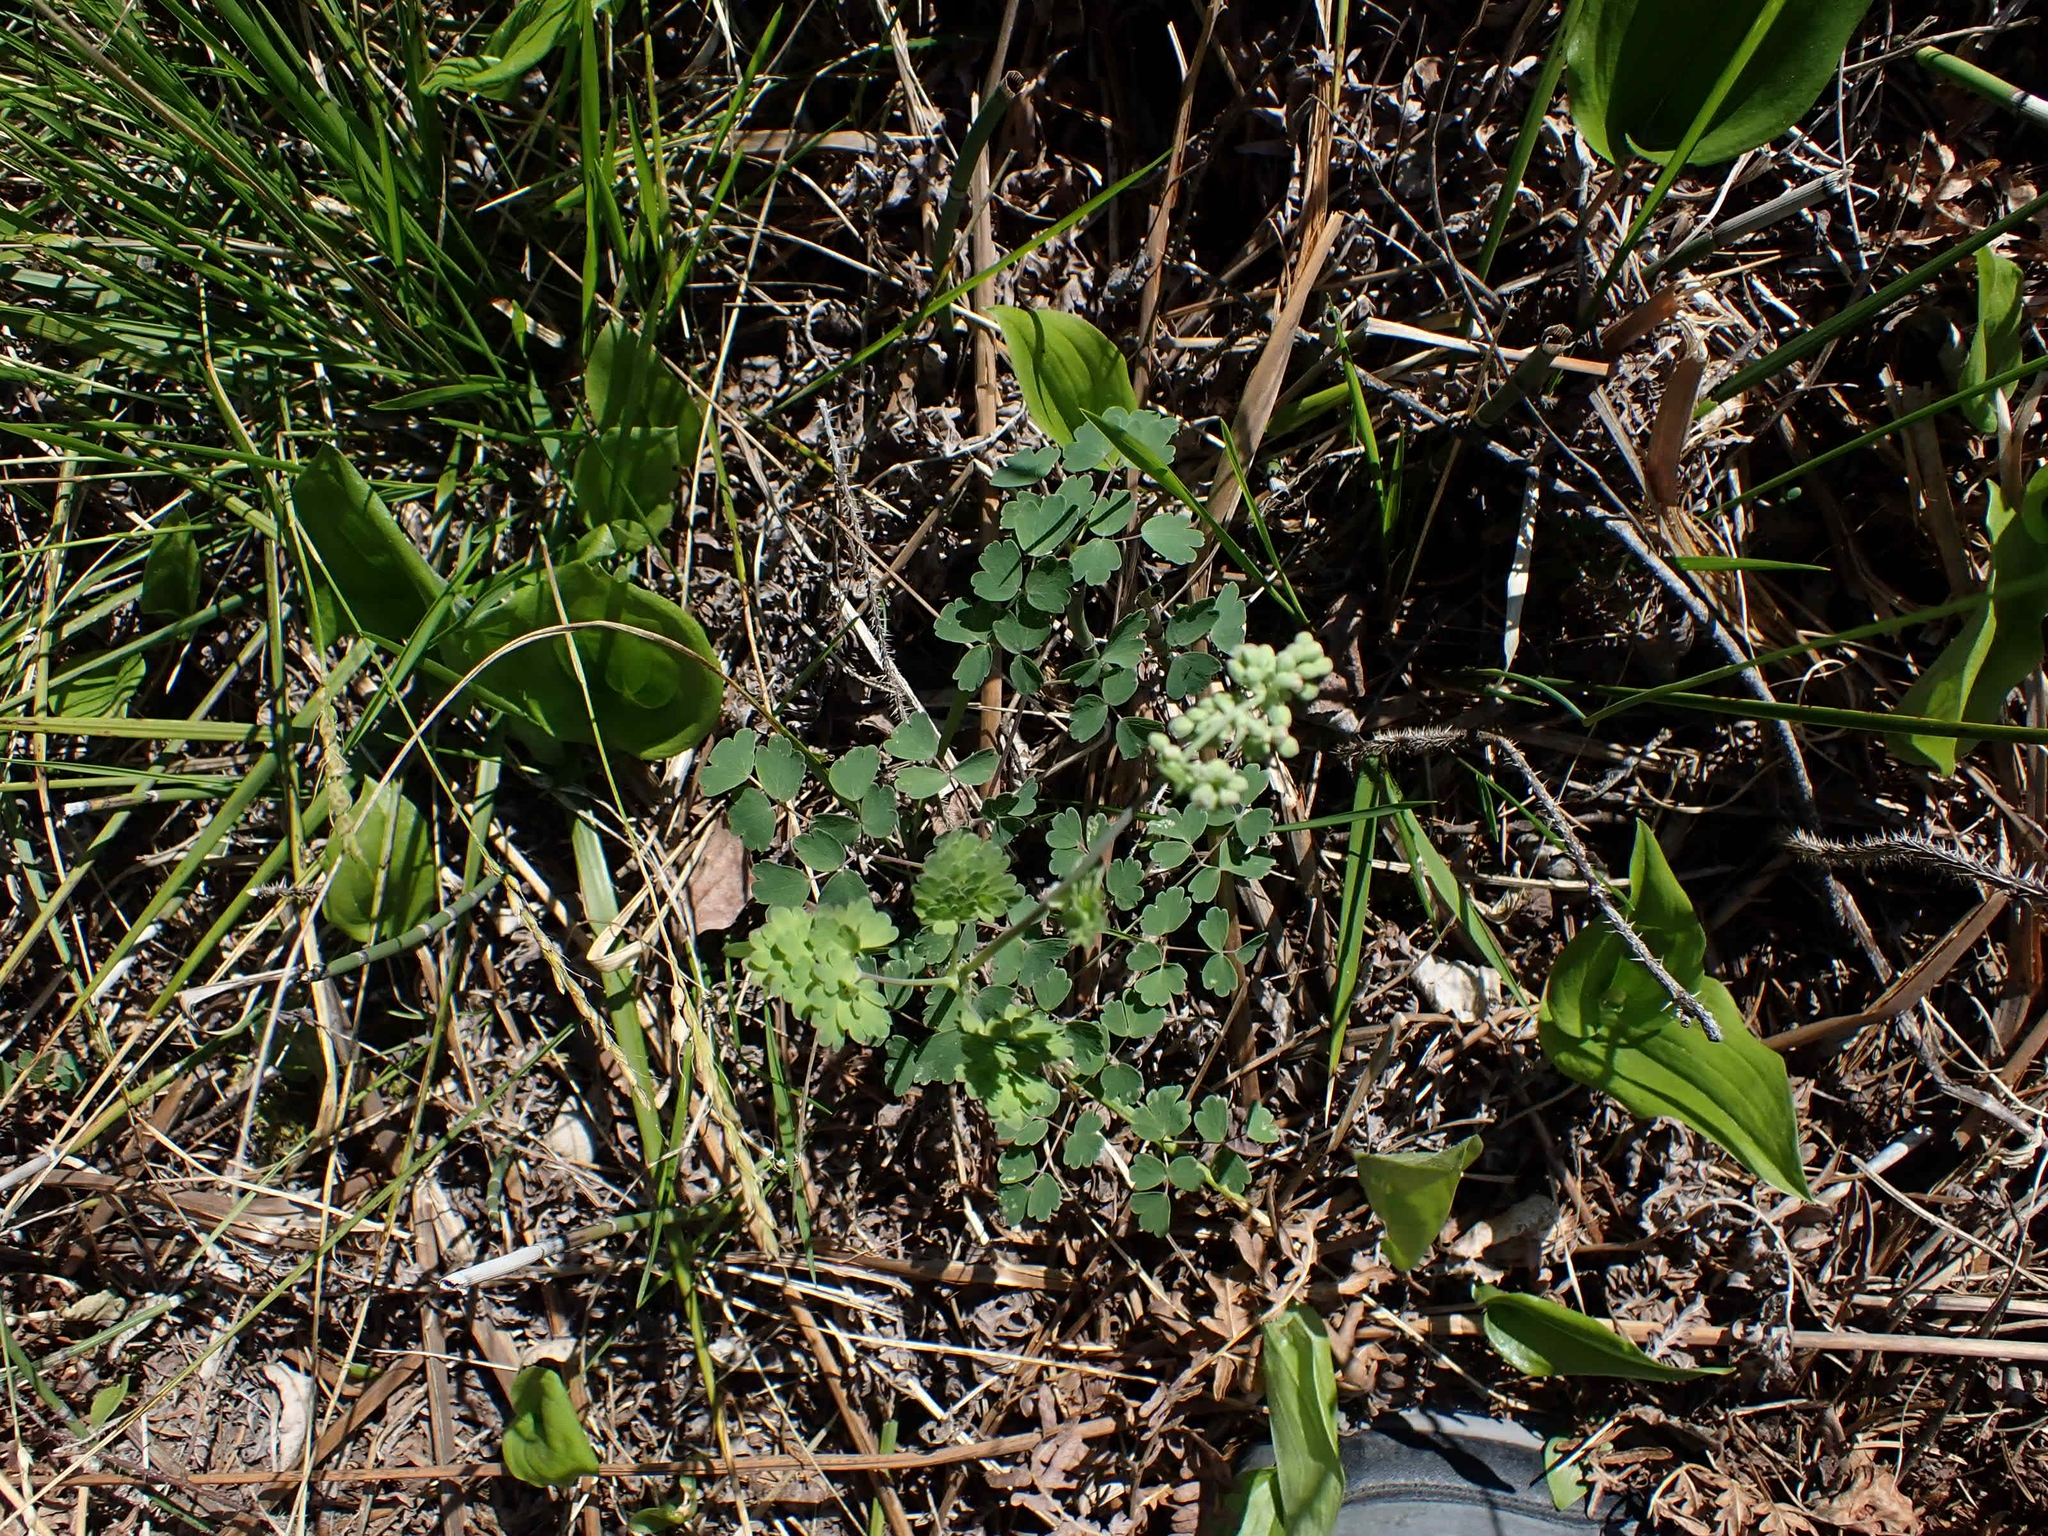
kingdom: Plantae
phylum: Tracheophyta
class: Magnoliopsida
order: Ranunculales
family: Ranunculaceae
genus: Thalictrum
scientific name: Thalictrum venulosum
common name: Early meadow-rue
